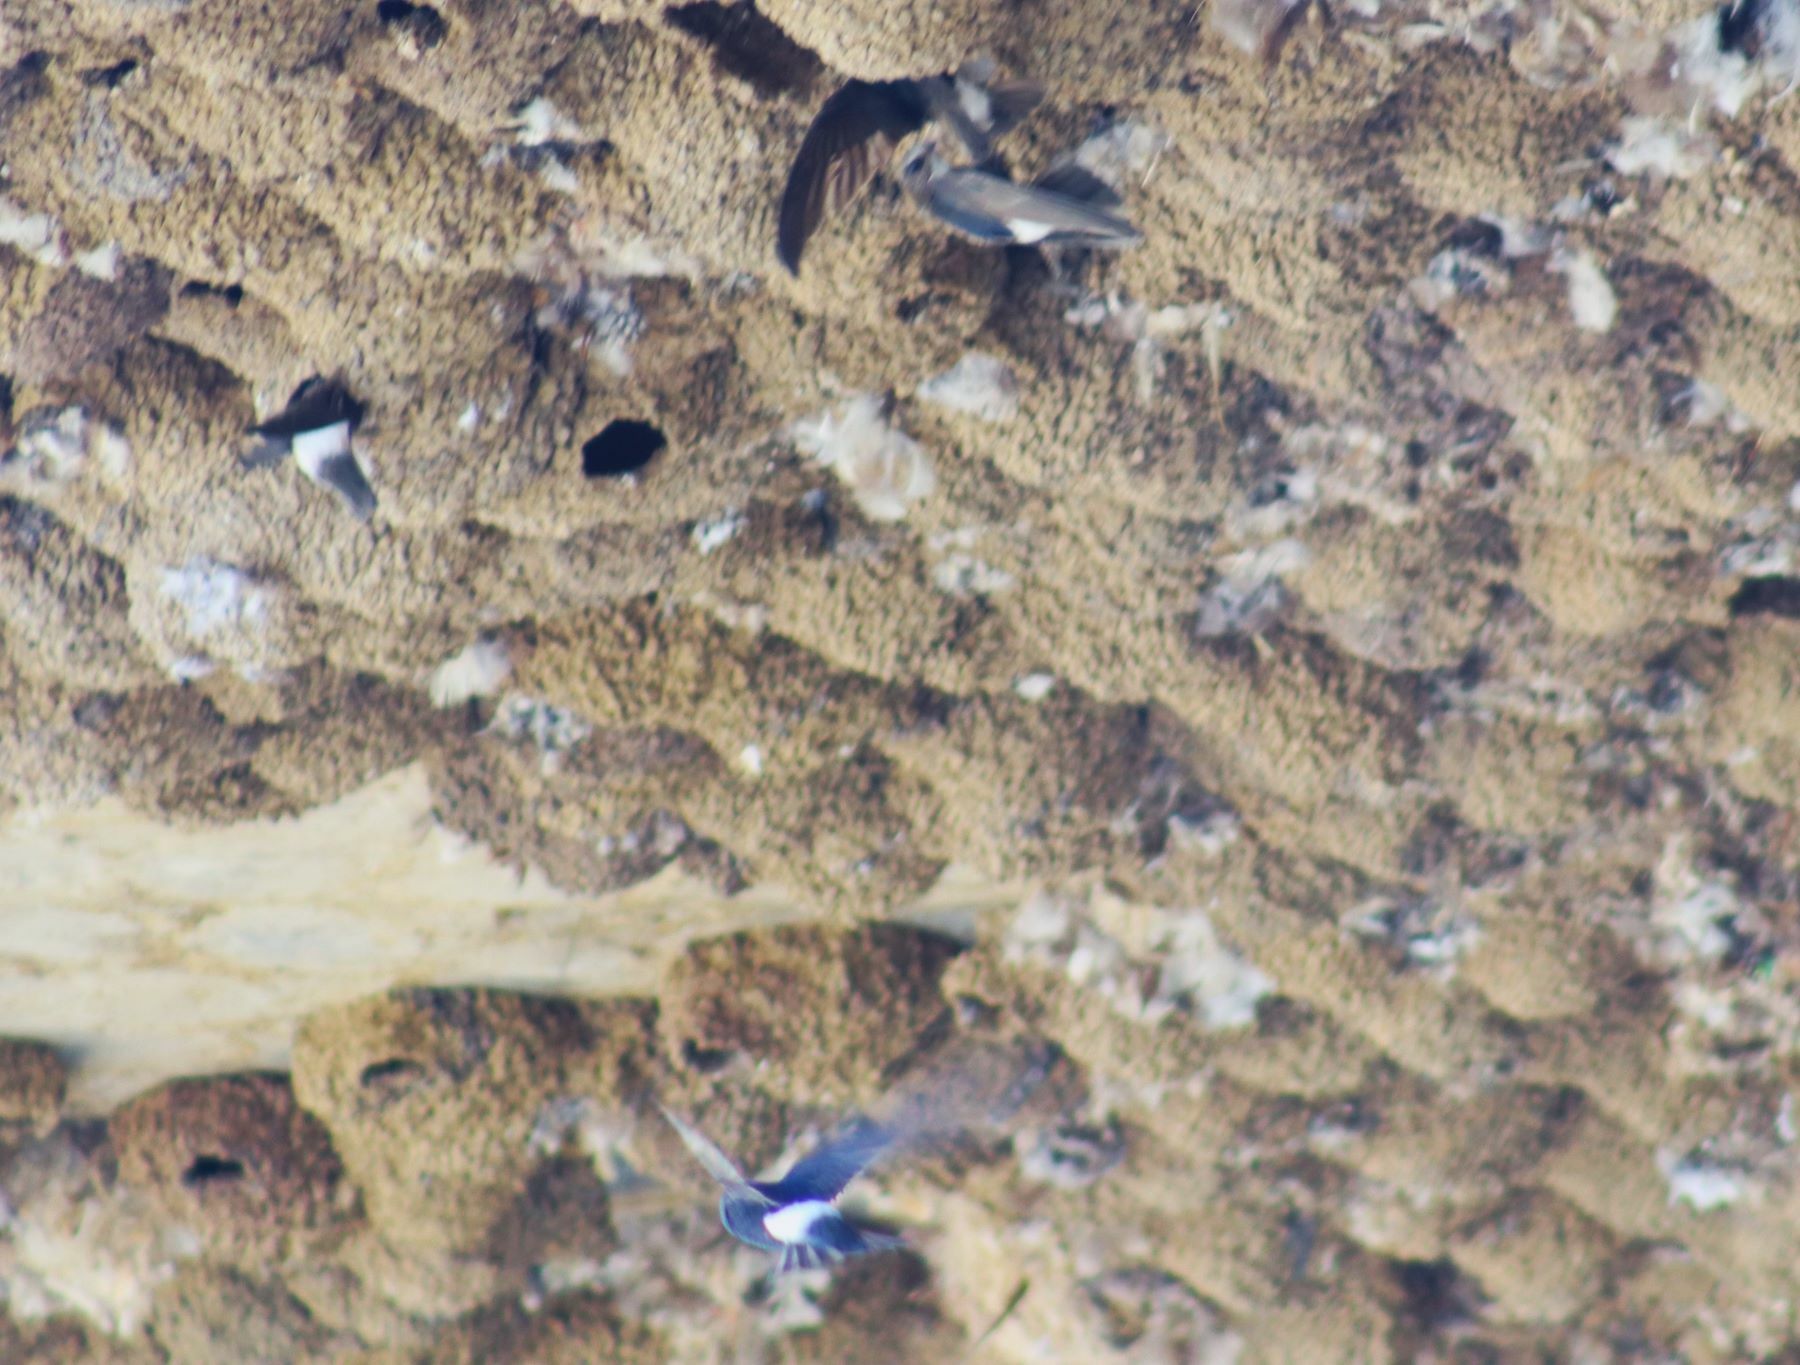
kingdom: Animalia
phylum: Chordata
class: Aves
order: Apodiformes
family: Apodidae
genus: Apus
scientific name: Apus affinis
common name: Little swift
